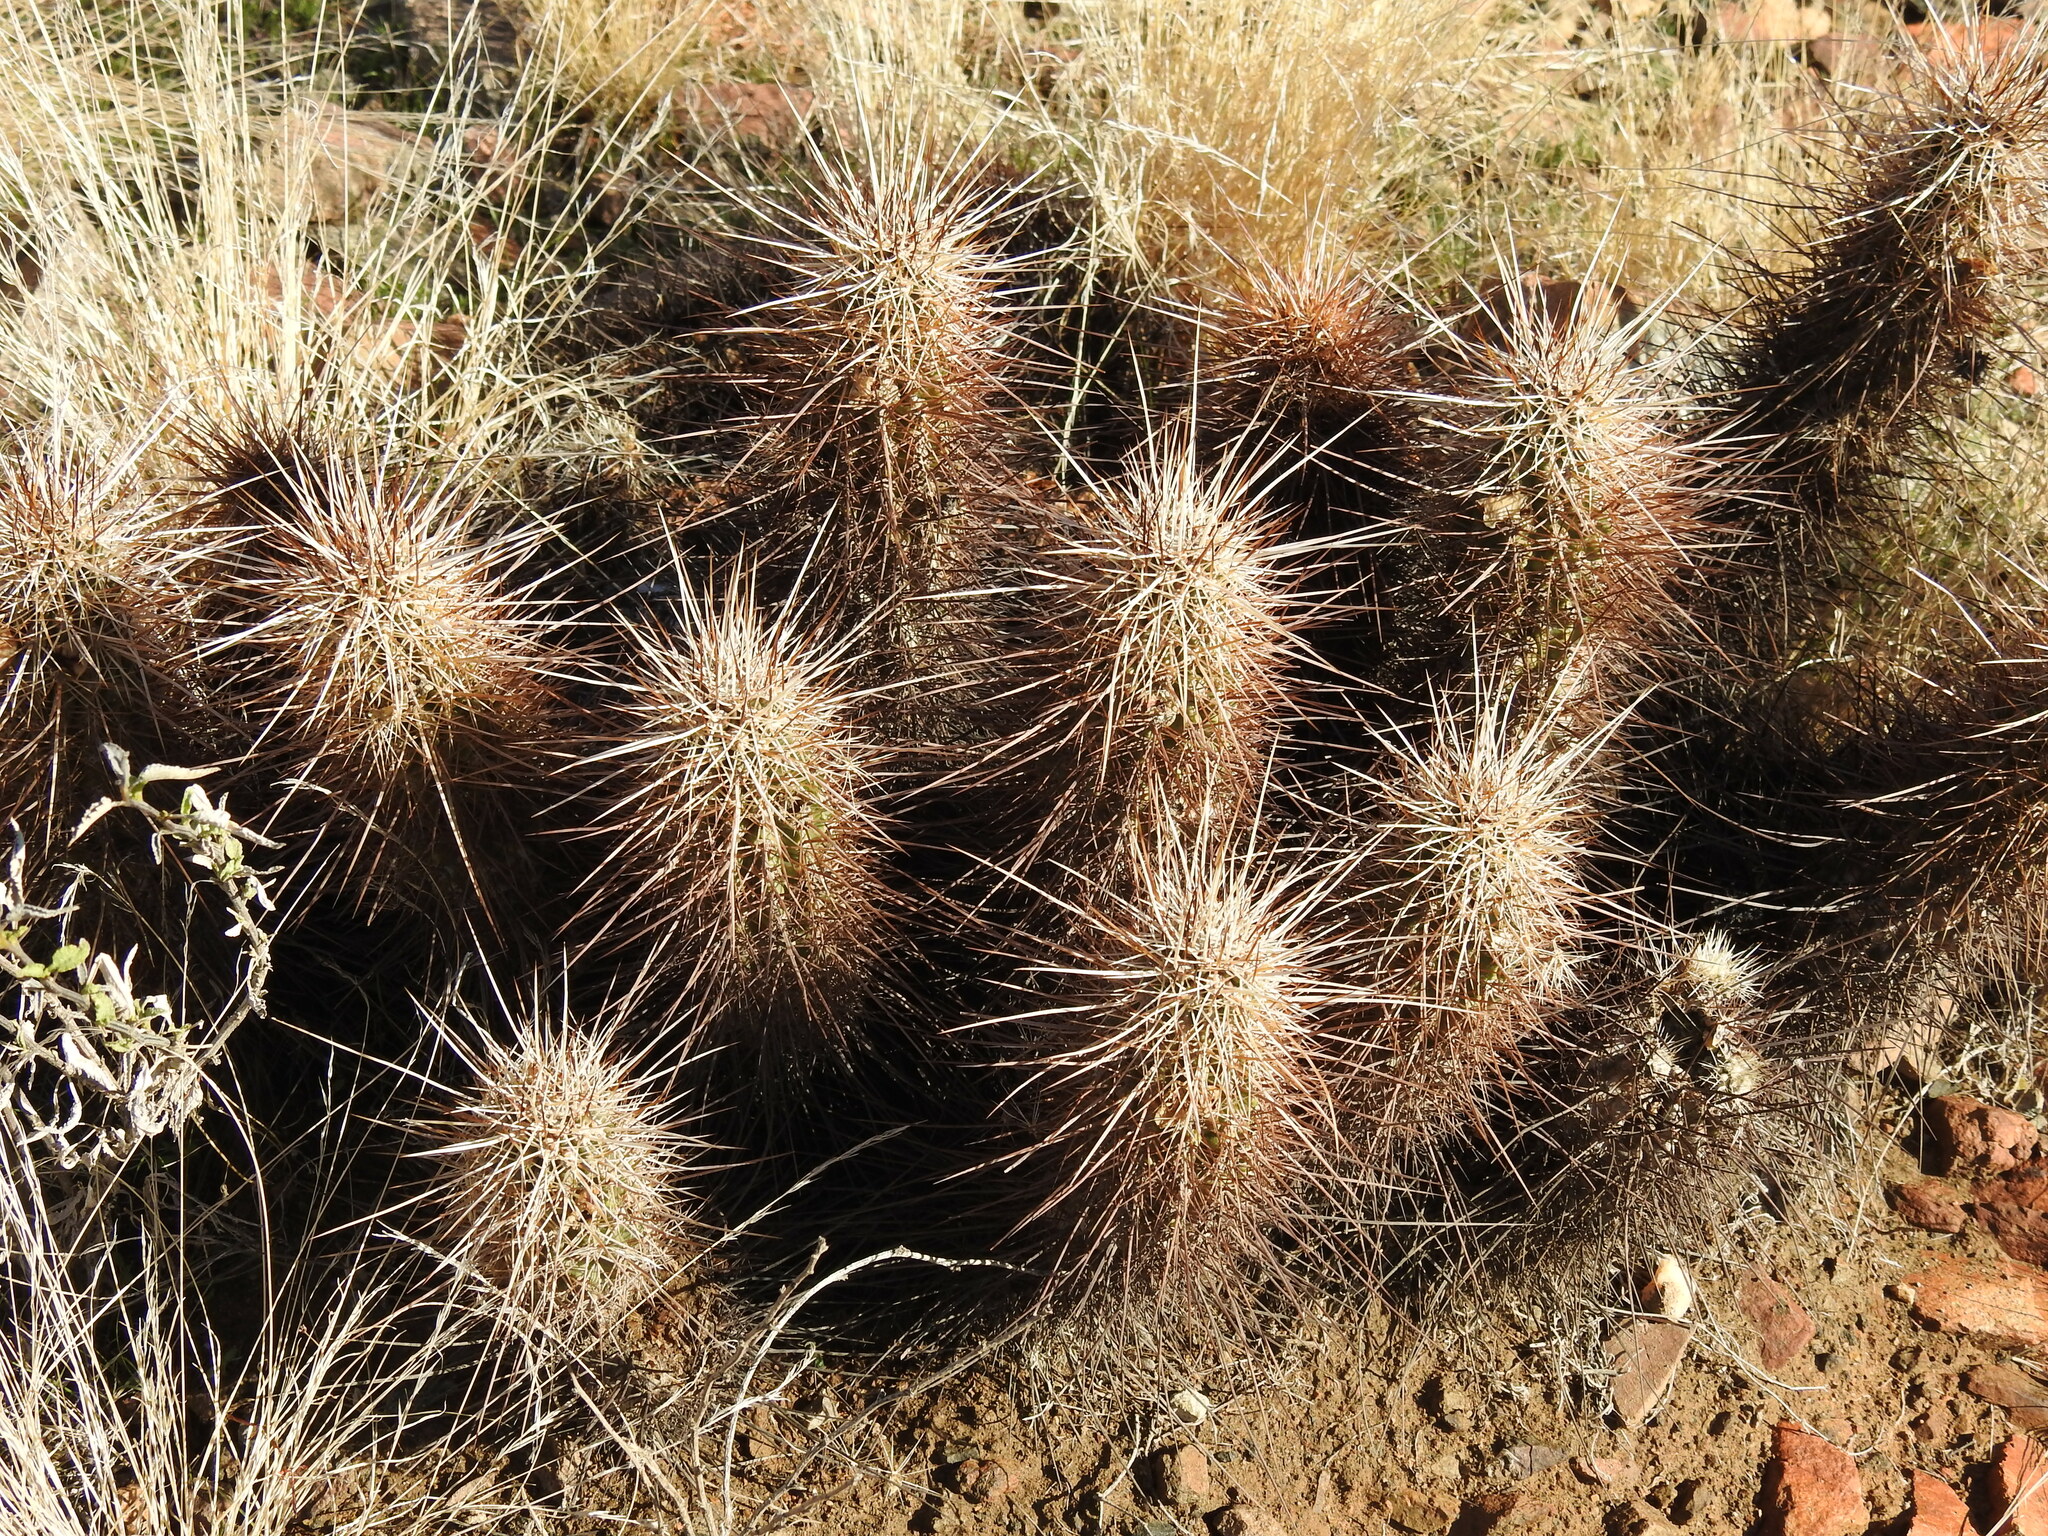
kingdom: Plantae
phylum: Tracheophyta
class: Magnoliopsida
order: Caryophyllales
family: Cactaceae
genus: Echinocereus
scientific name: Echinocereus engelmannii
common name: Engelmann's hedgehog cactus
